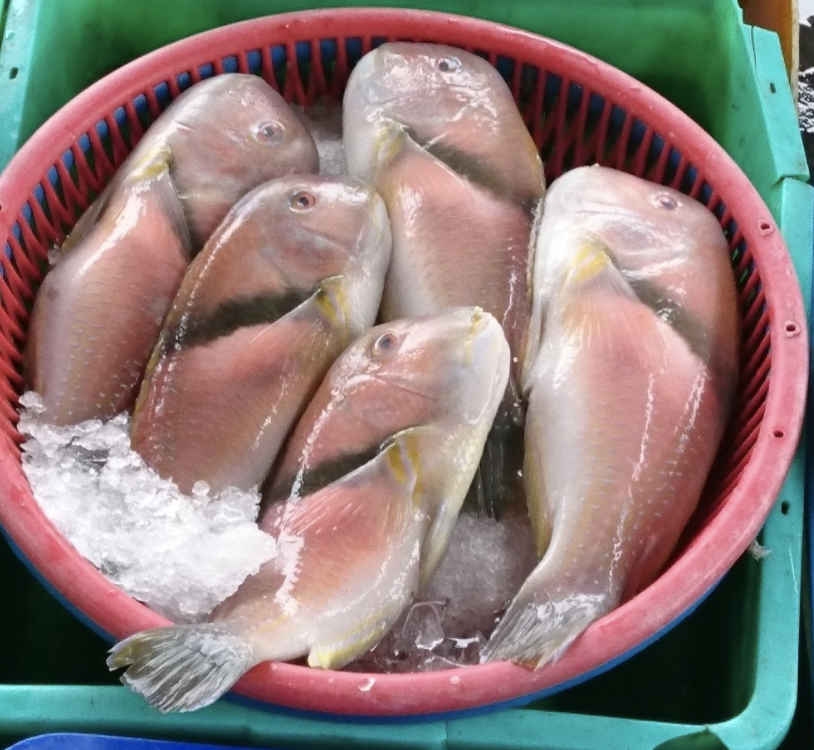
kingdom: Animalia
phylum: Chordata
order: Perciformes
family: Labridae
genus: Choerodon
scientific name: Choerodon azurio
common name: Scarbreast tuskfin
